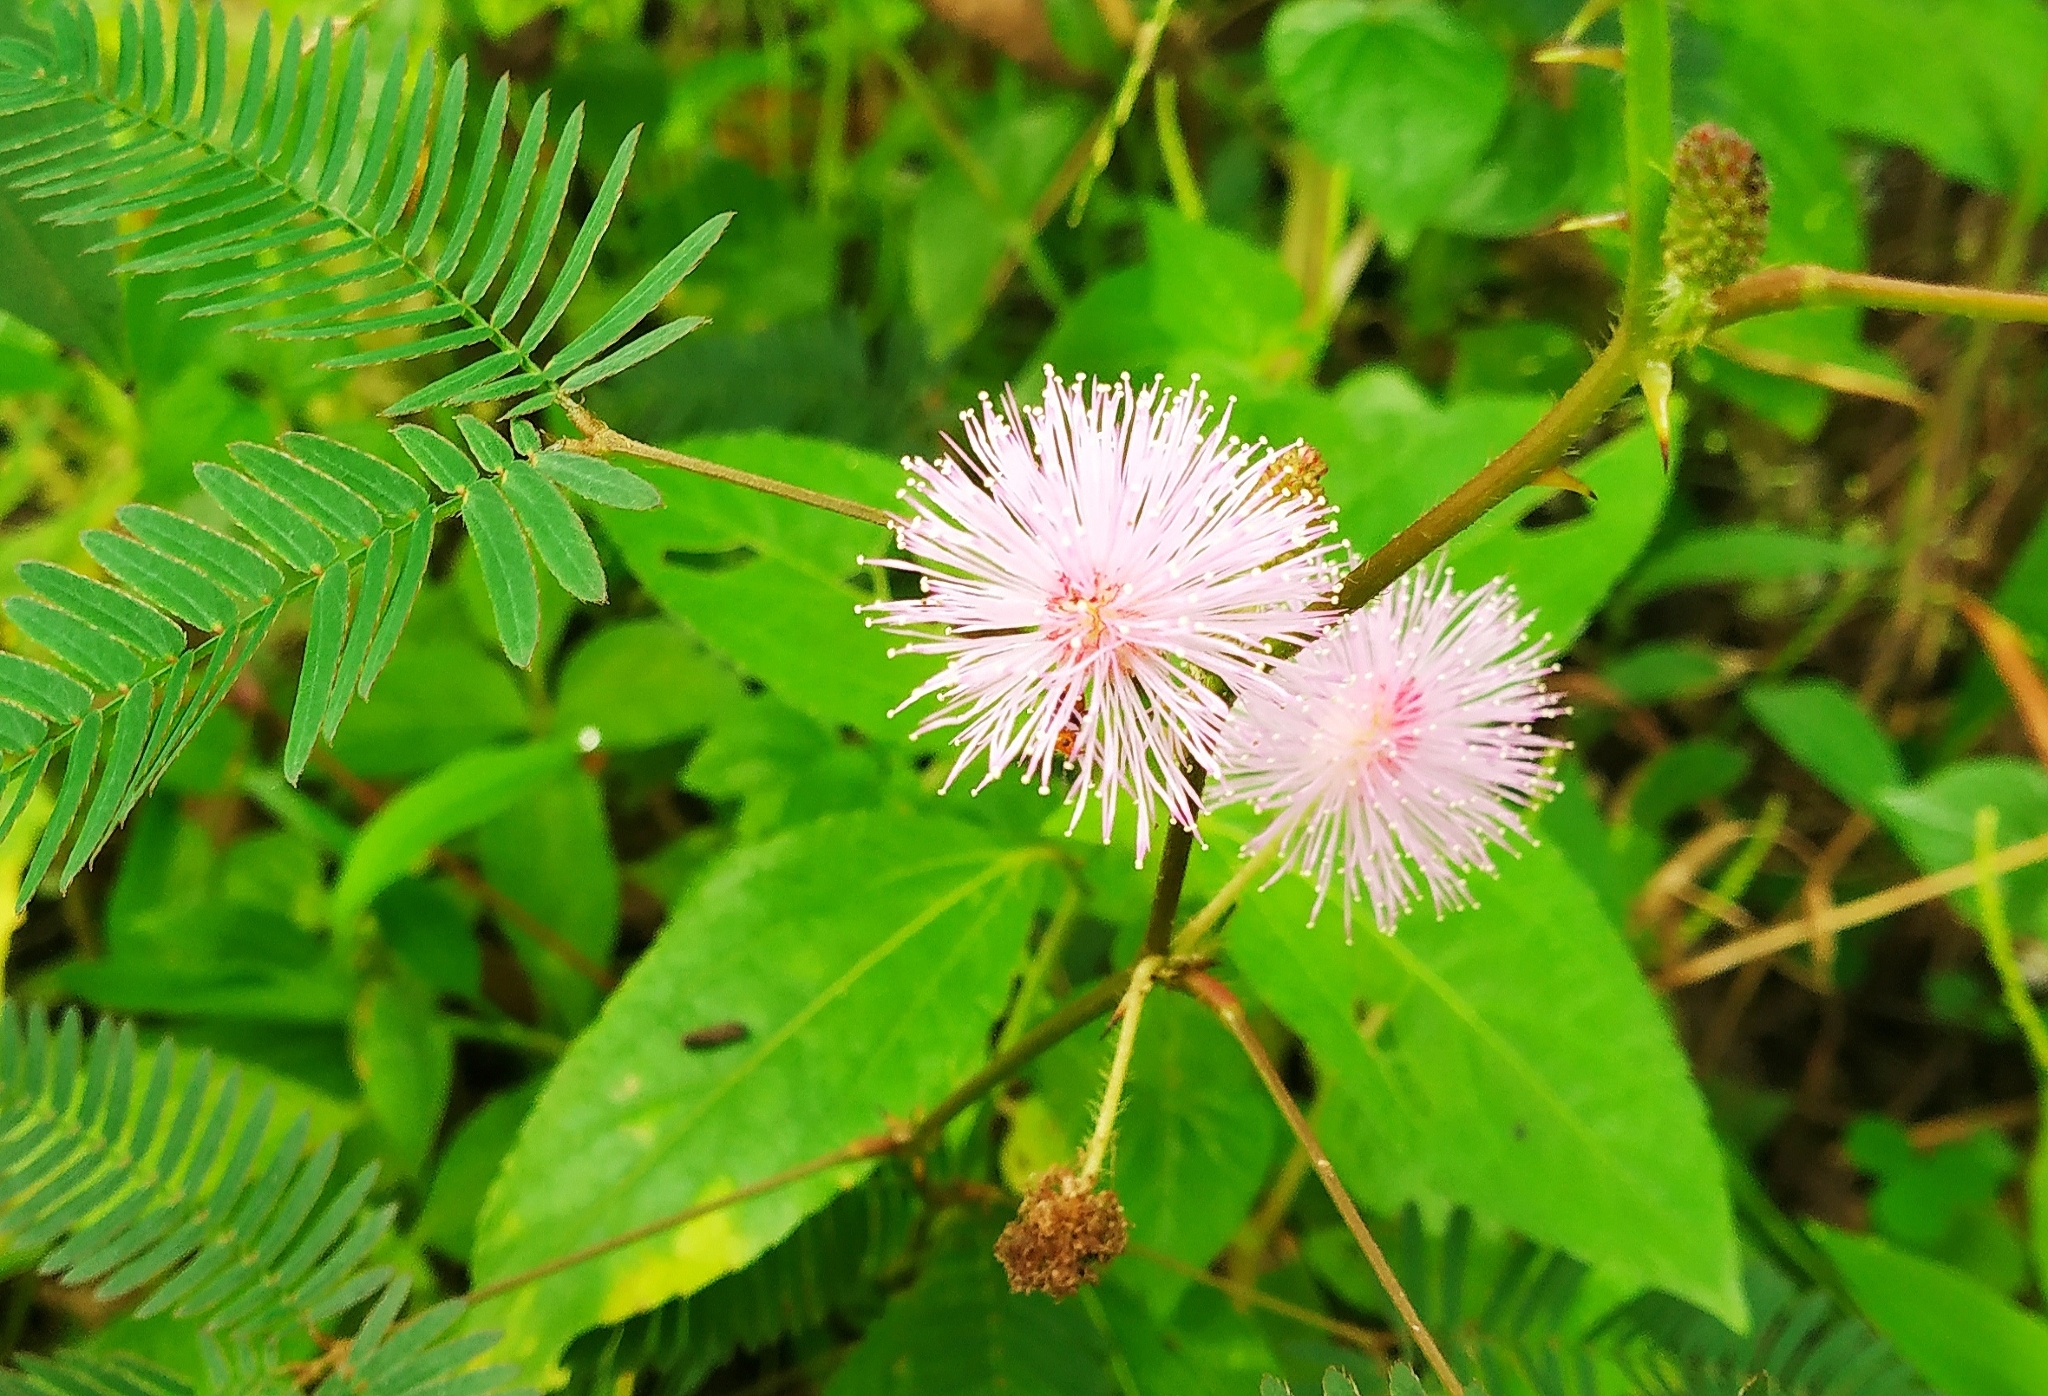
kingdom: Plantae
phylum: Tracheophyta
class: Magnoliopsida
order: Fabales
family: Fabaceae
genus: Mimosa
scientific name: Mimosa pudica
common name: Sensitive plant
